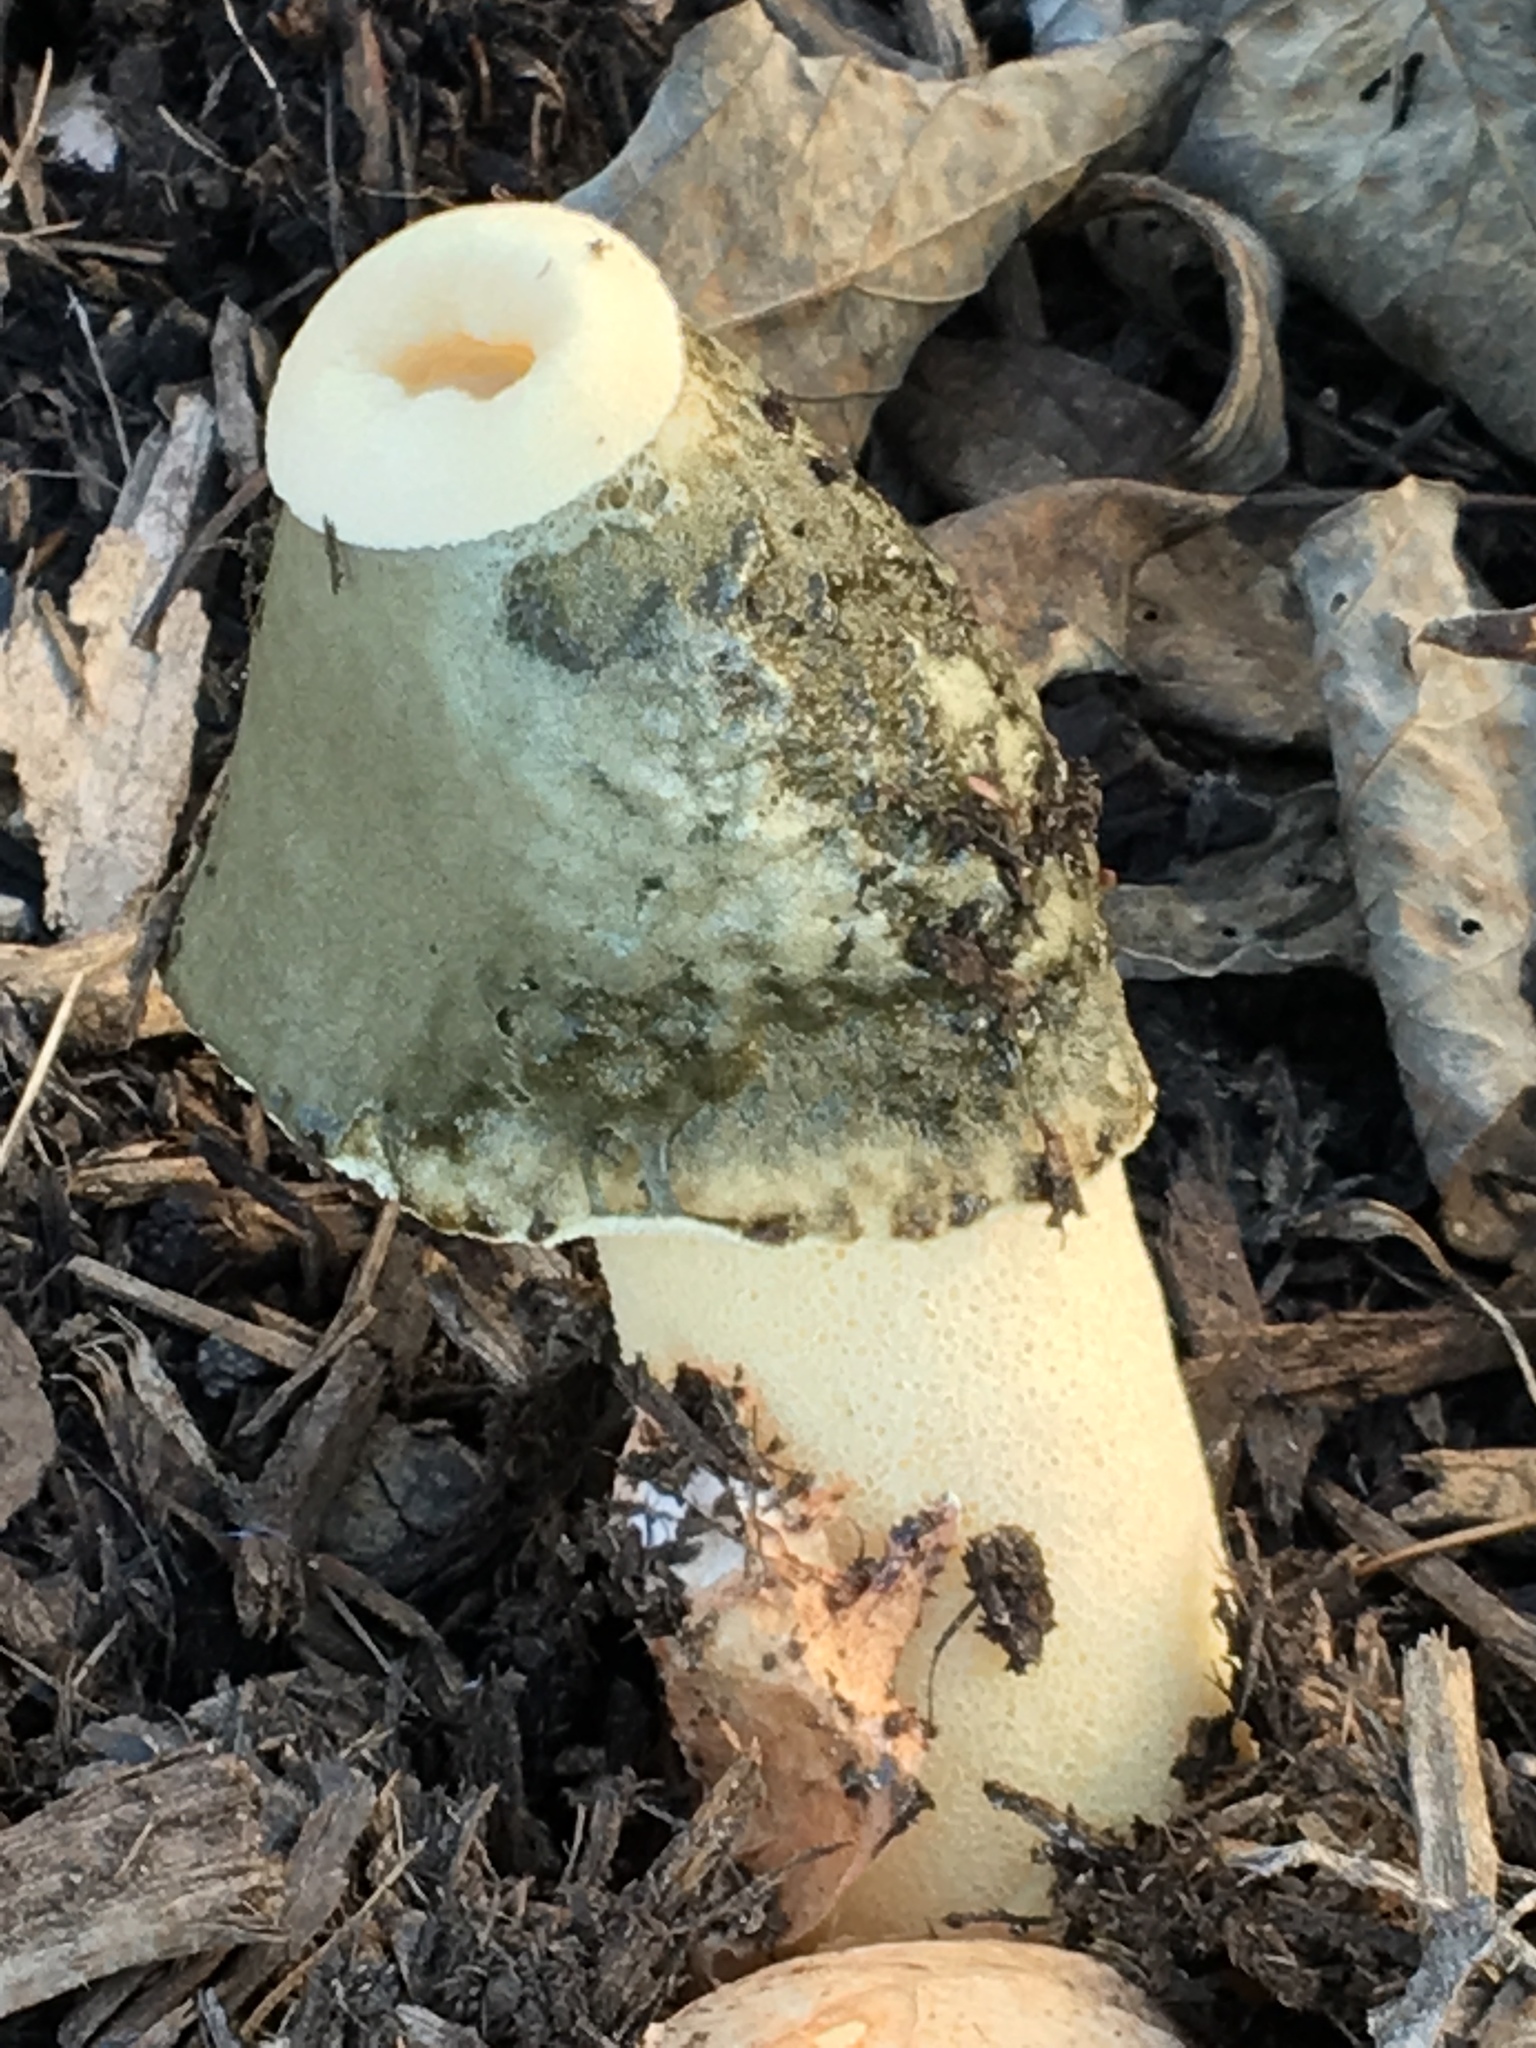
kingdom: Fungi
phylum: Basidiomycota
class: Agaricomycetes
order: Phallales
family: Phallaceae
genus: Phallus
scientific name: Phallus ravenelii
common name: Ravenel's stinkhorn
